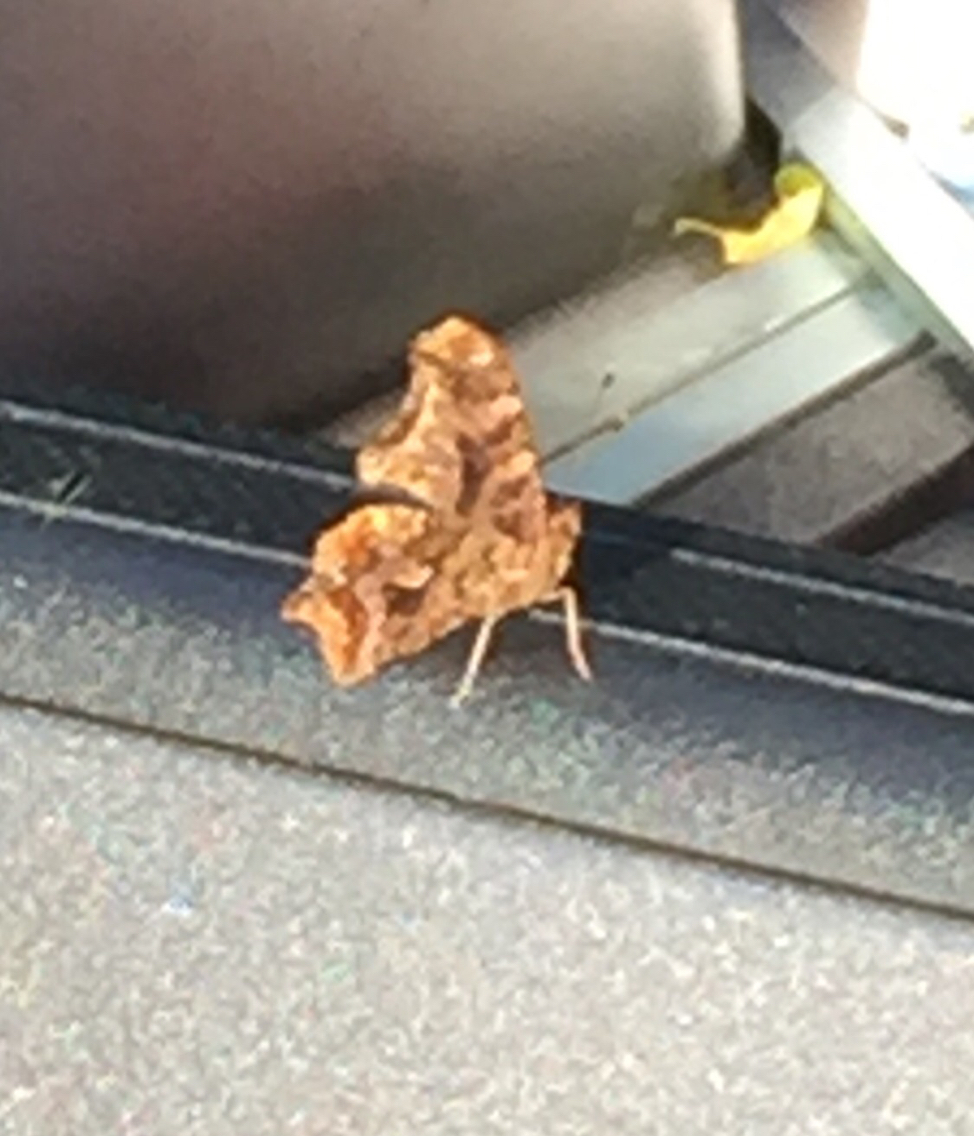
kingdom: Animalia
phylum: Arthropoda
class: Insecta
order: Lepidoptera
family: Nymphalidae
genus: Polygonia
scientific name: Polygonia comma
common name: Eastern comma
